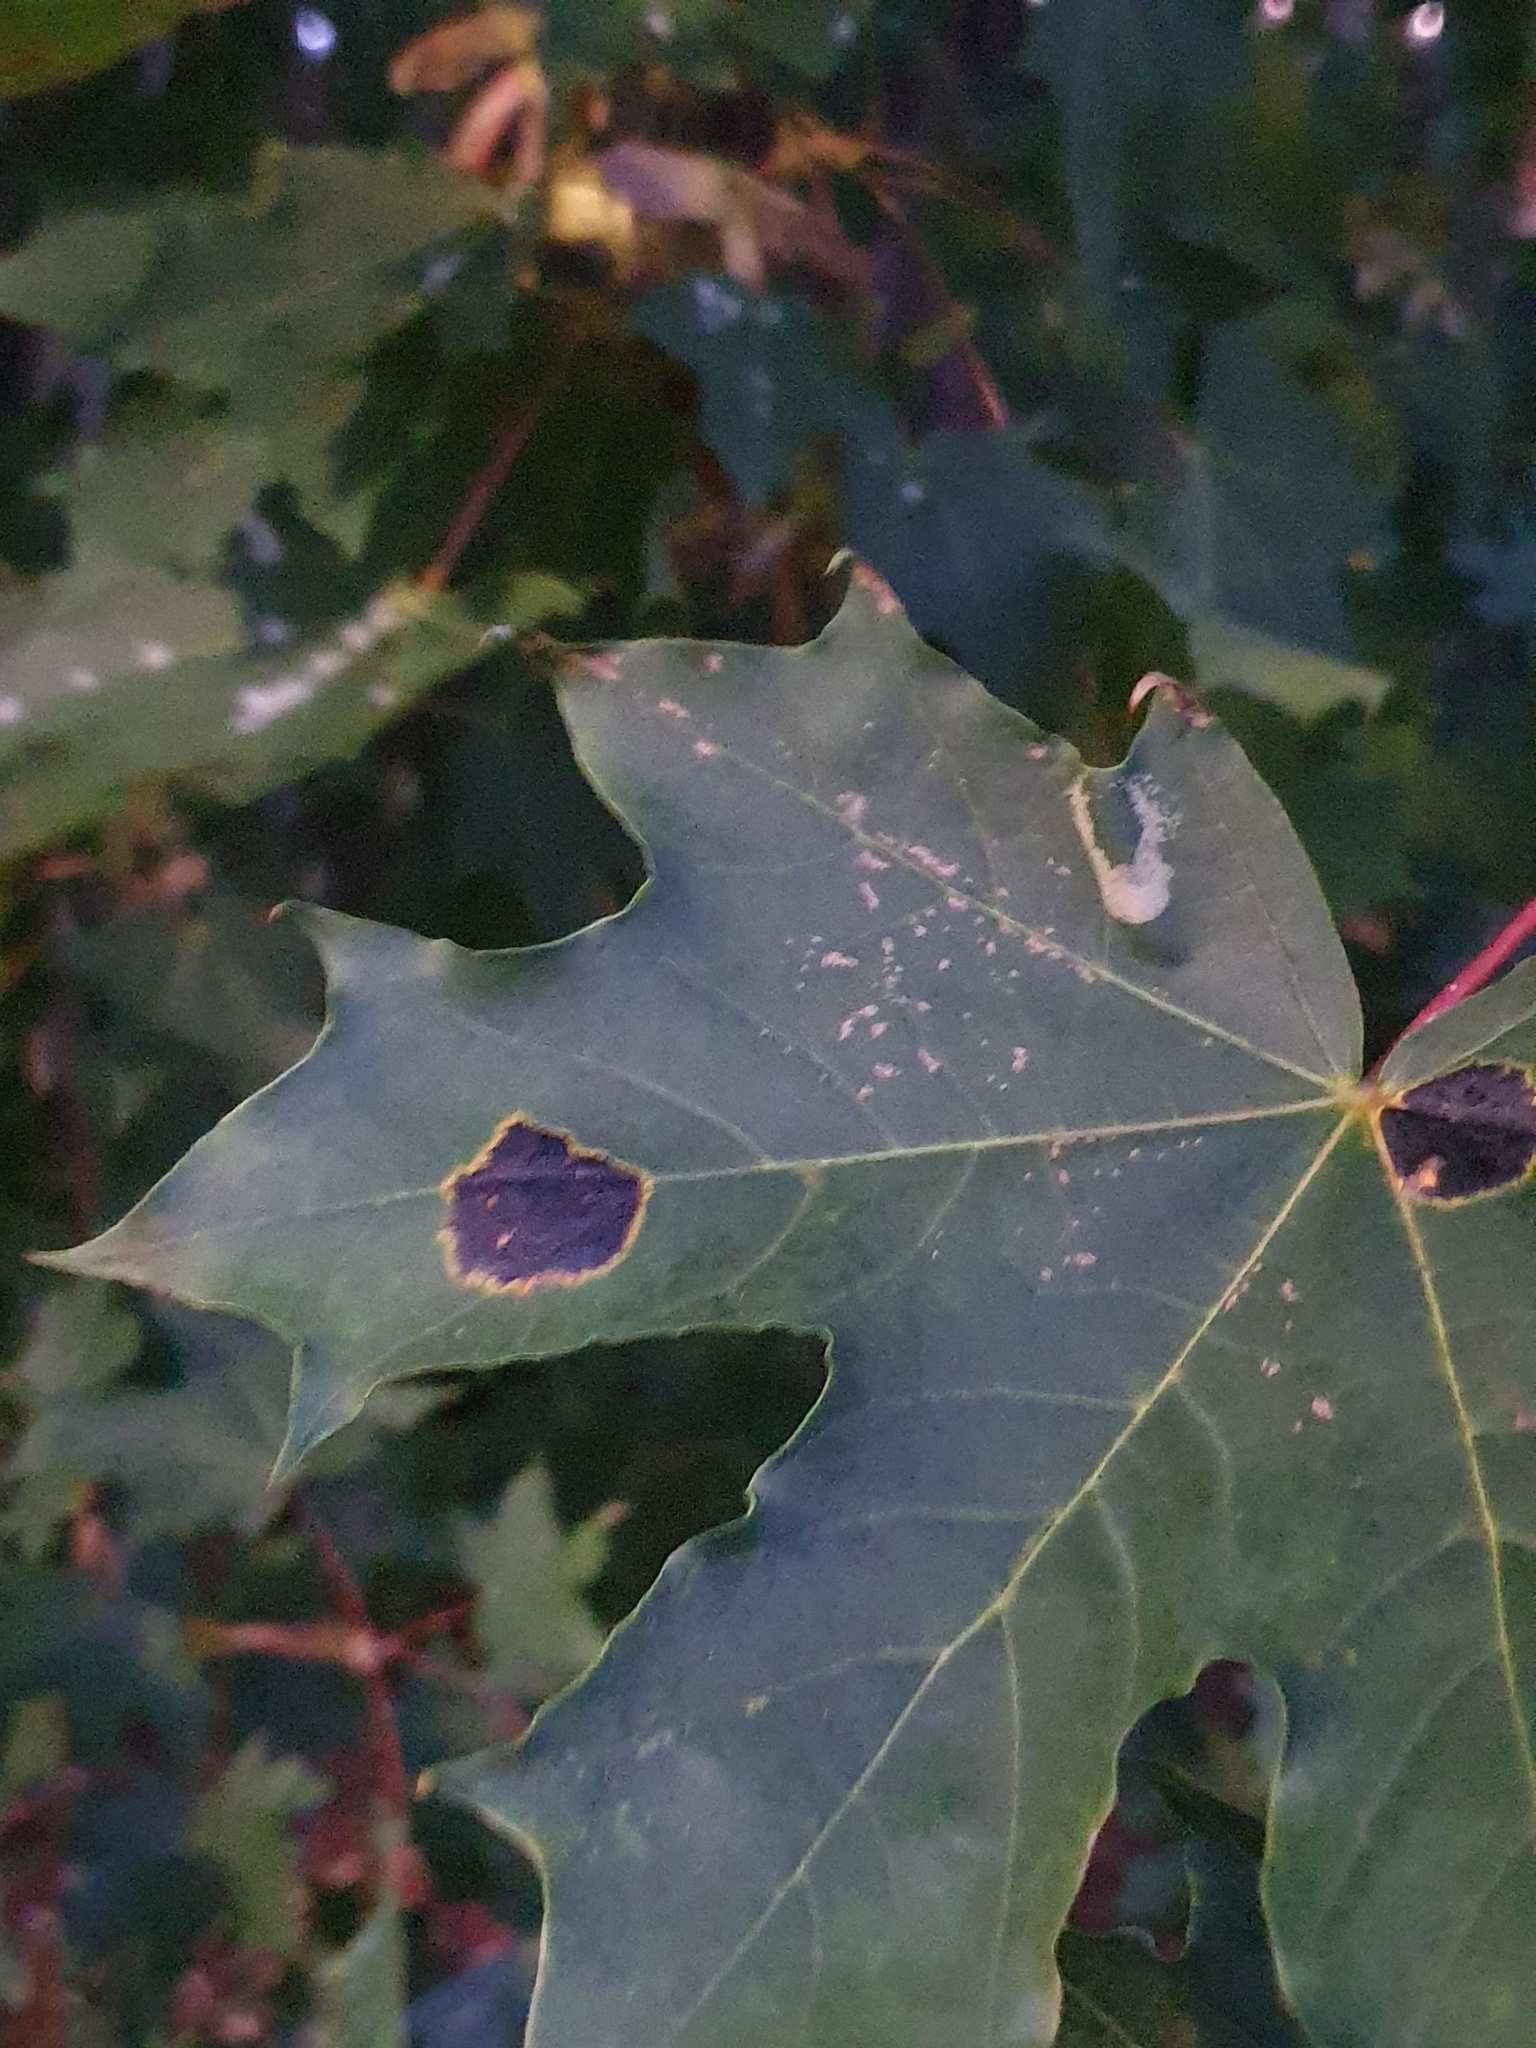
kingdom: Fungi
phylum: Ascomycota
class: Leotiomycetes
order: Rhytismatales
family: Rhytismataceae
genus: Rhytisma
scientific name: Rhytisma acerinum
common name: European tar spot
